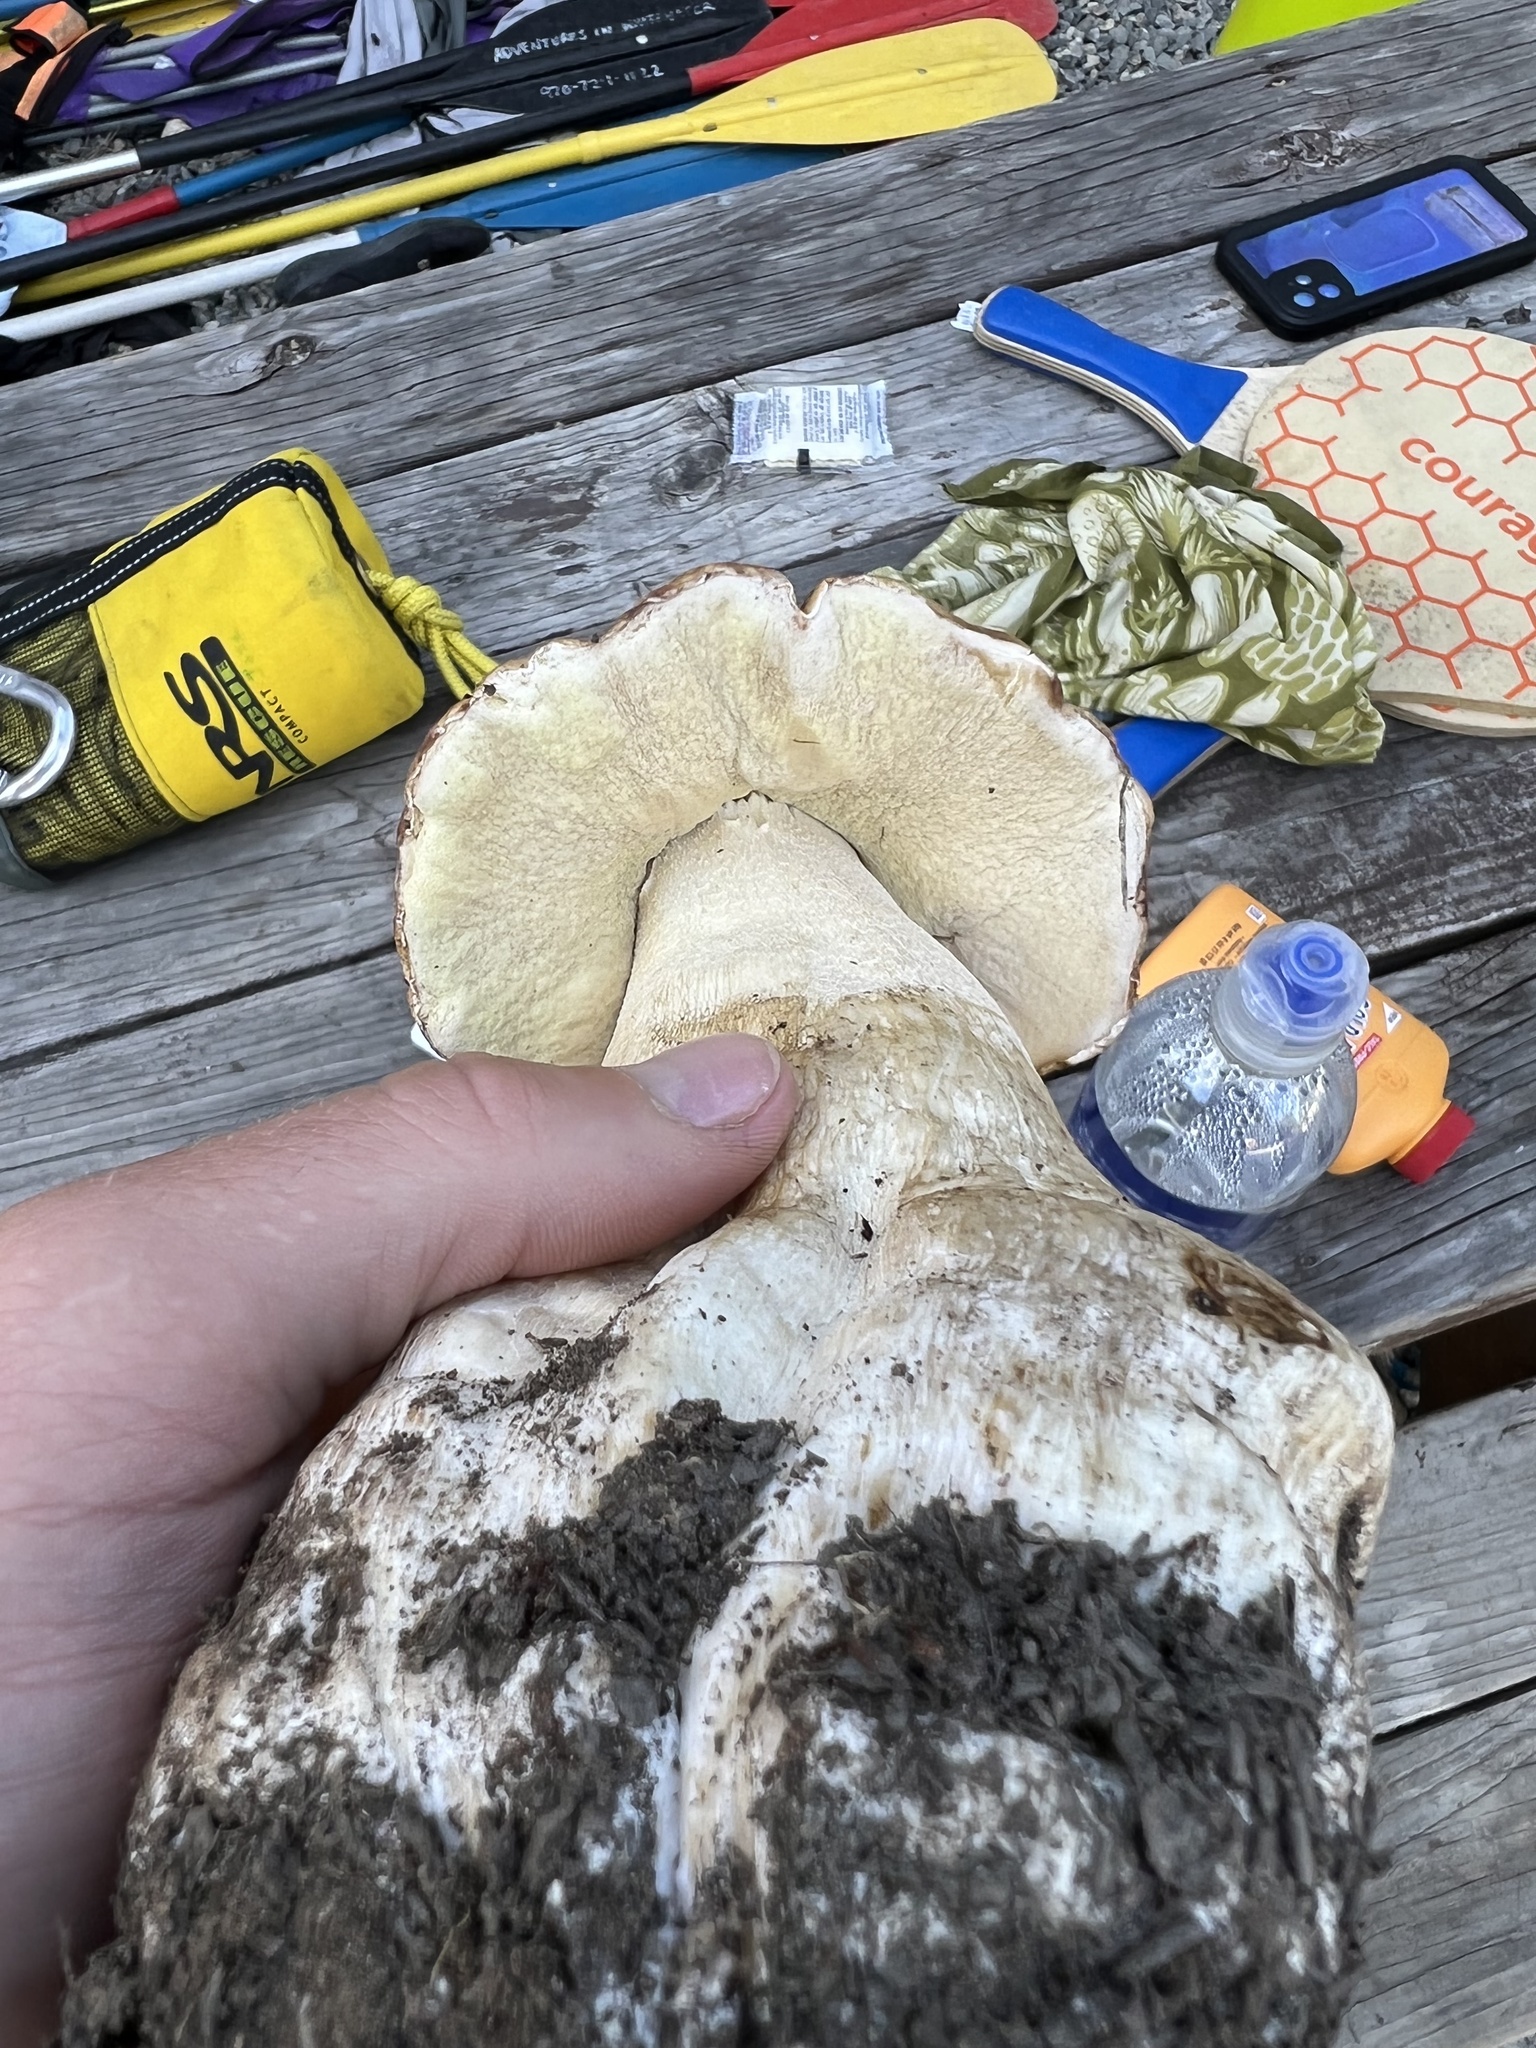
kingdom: Fungi
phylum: Basidiomycota
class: Agaricomycetes
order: Boletales
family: Boletaceae
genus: Boletus
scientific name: Boletus rubriceps
